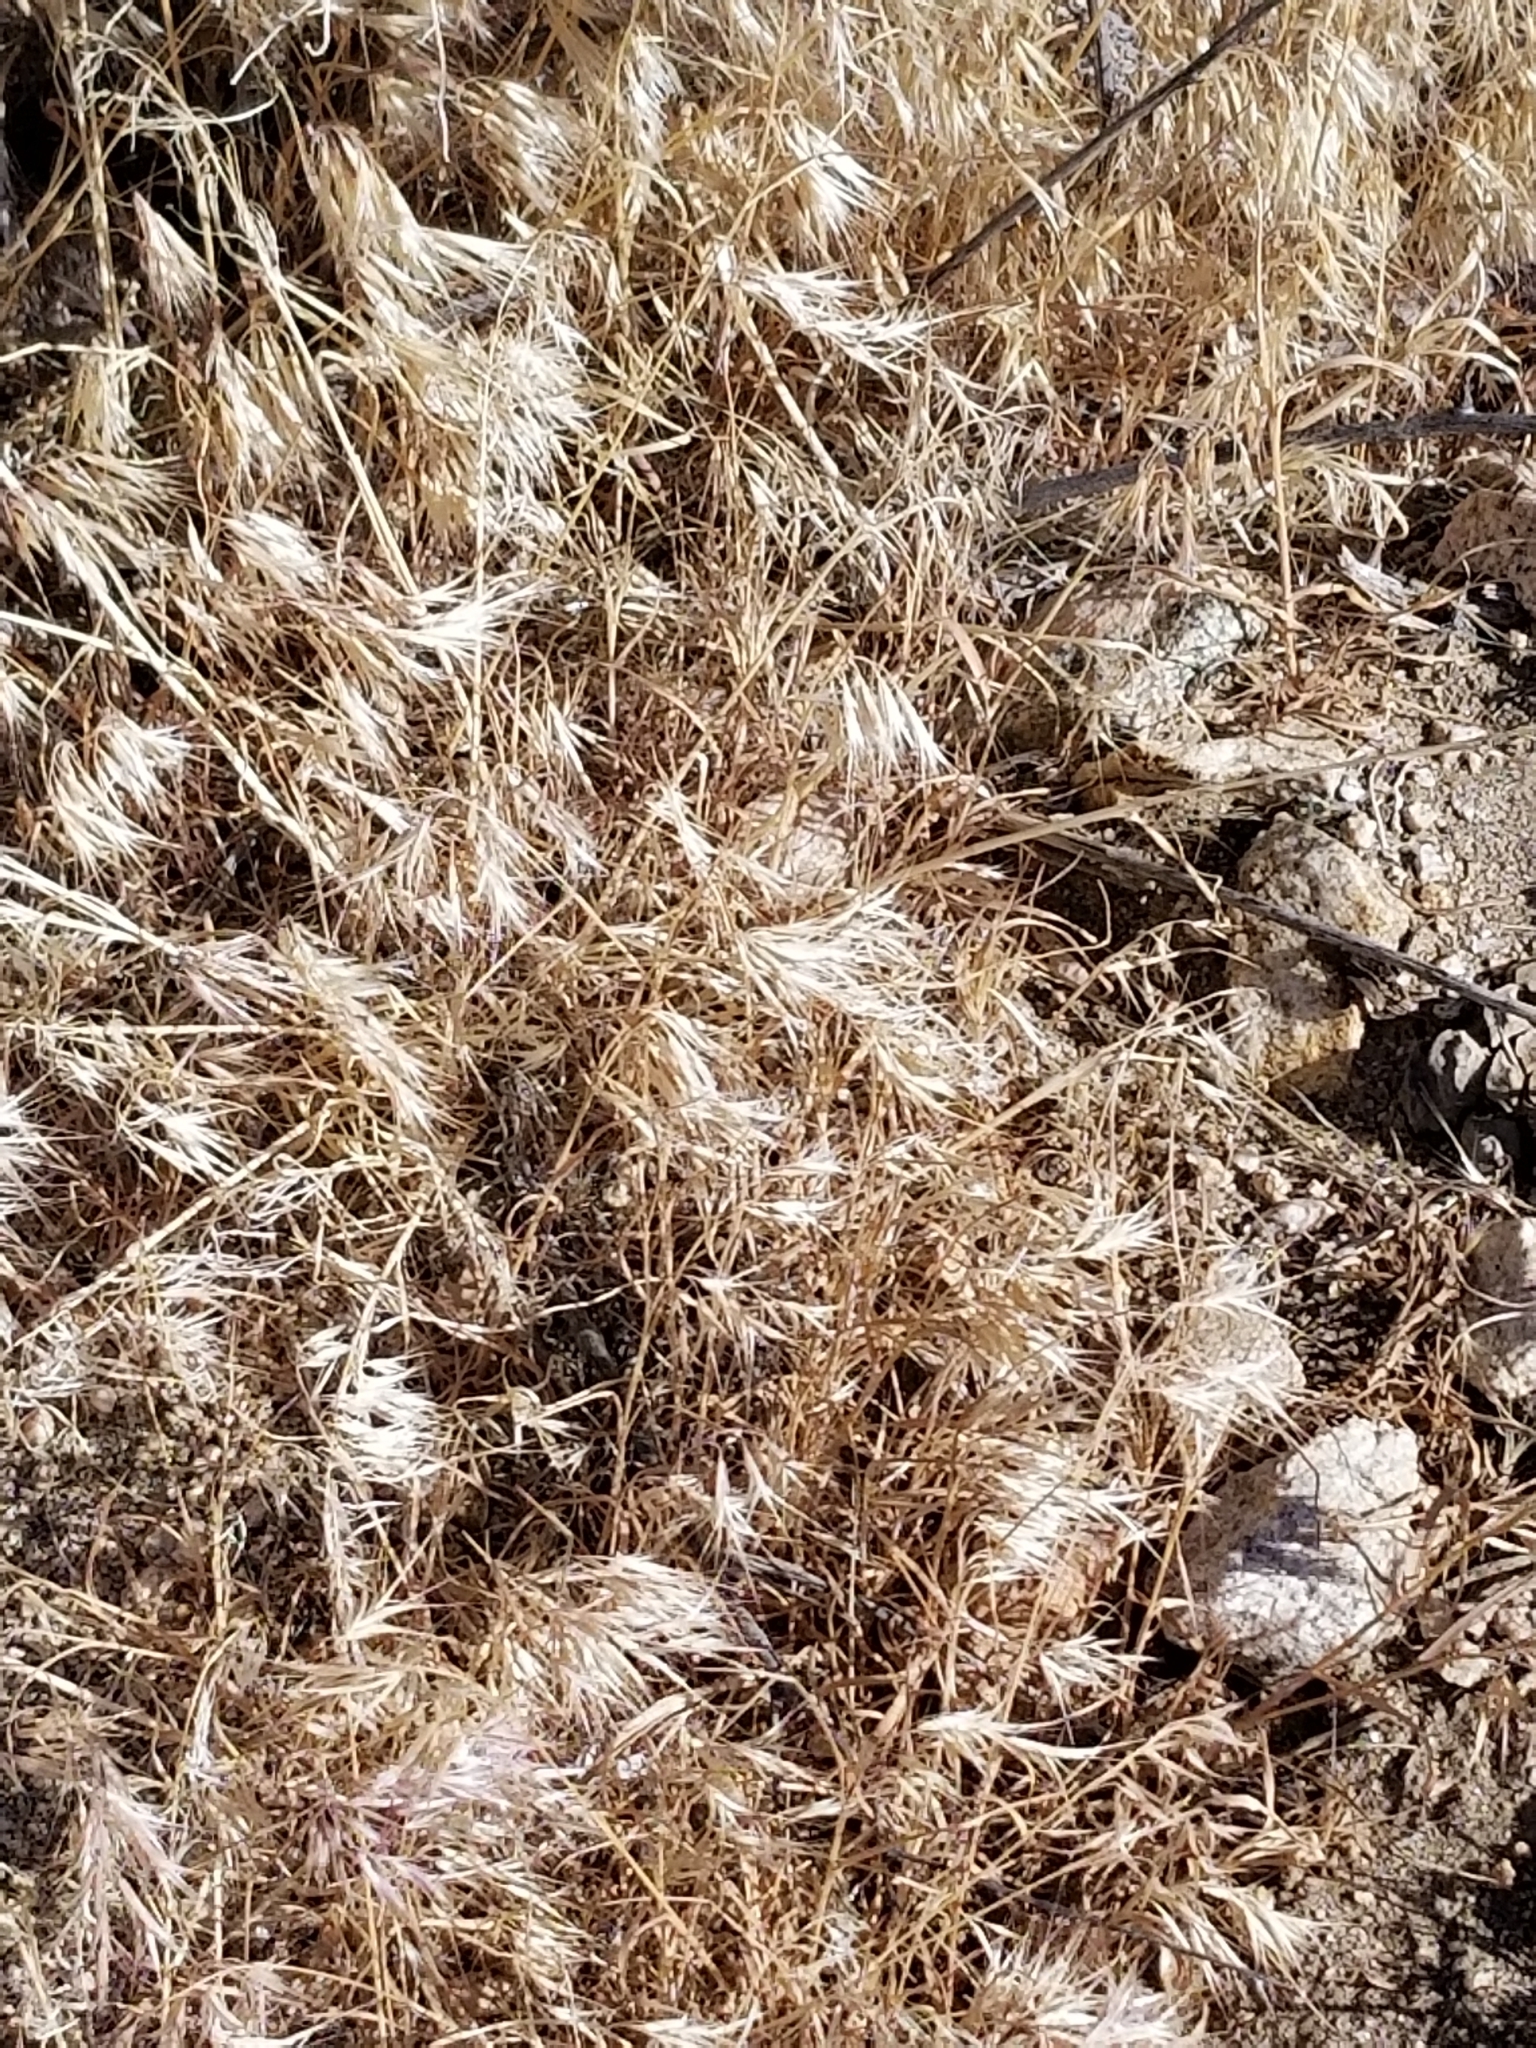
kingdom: Plantae
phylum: Tracheophyta
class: Liliopsida
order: Poales
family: Poaceae
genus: Bromus
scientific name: Bromus tectorum
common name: Cheatgrass
